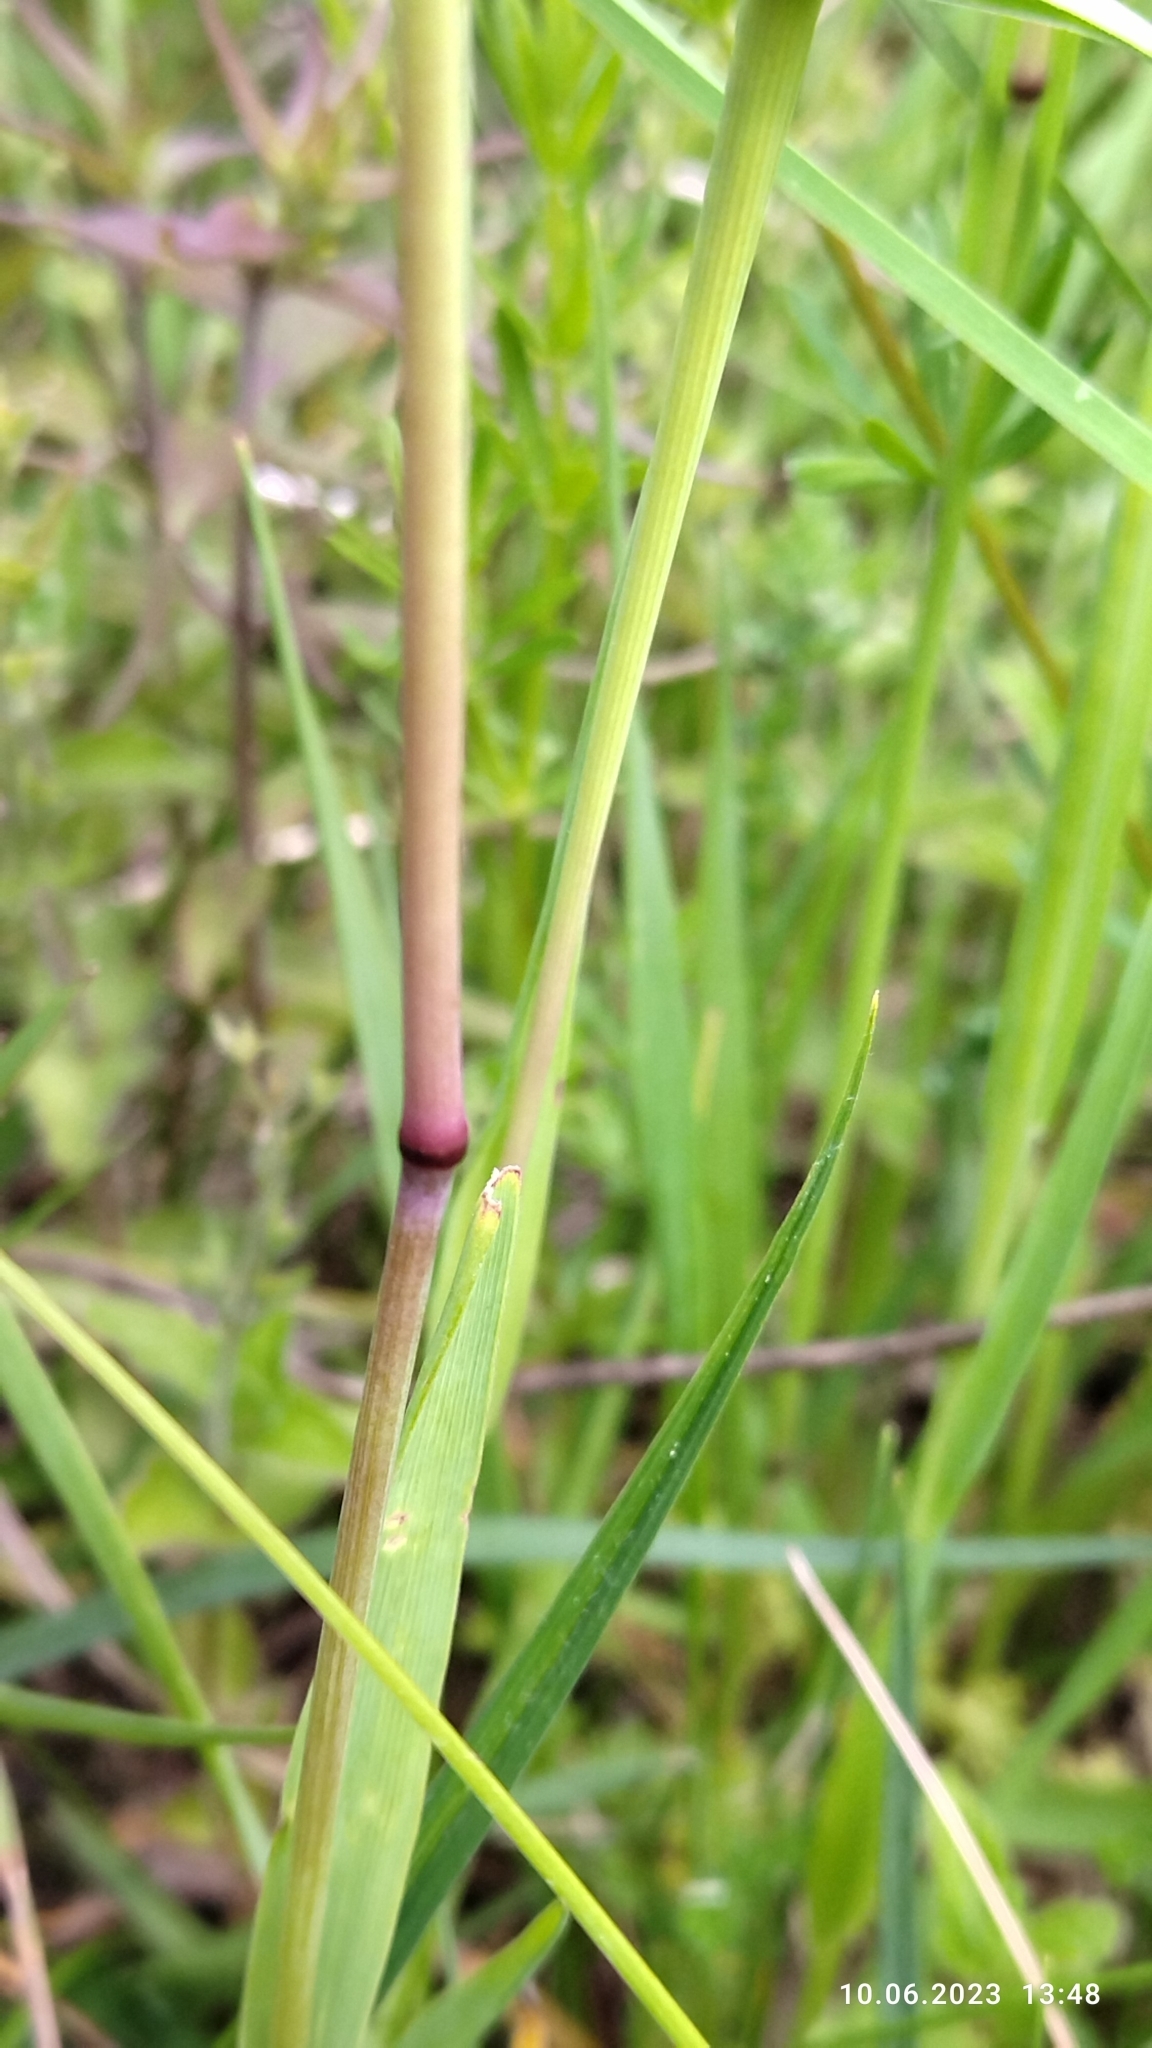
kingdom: Plantae
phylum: Tracheophyta
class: Liliopsida
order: Poales
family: Poaceae
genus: Briza
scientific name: Briza media
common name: Quaking grass
